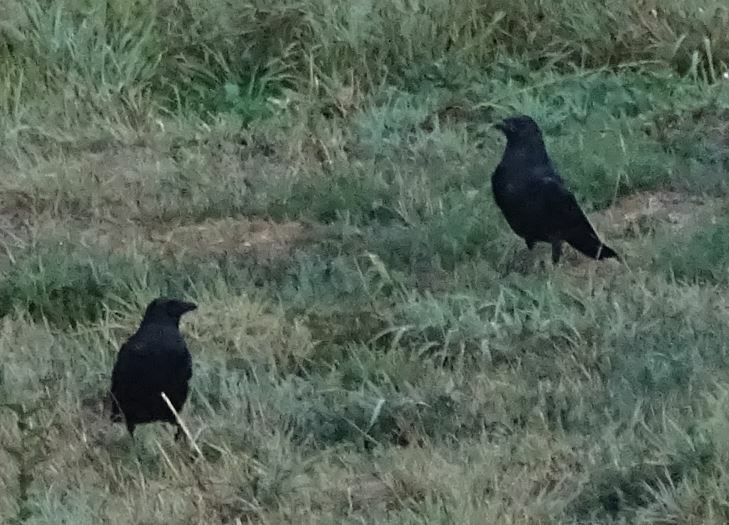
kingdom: Animalia
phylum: Chordata
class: Aves
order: Passeriformes
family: Corvidae
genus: Corvus
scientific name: Corvus corone
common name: Carrion crow
